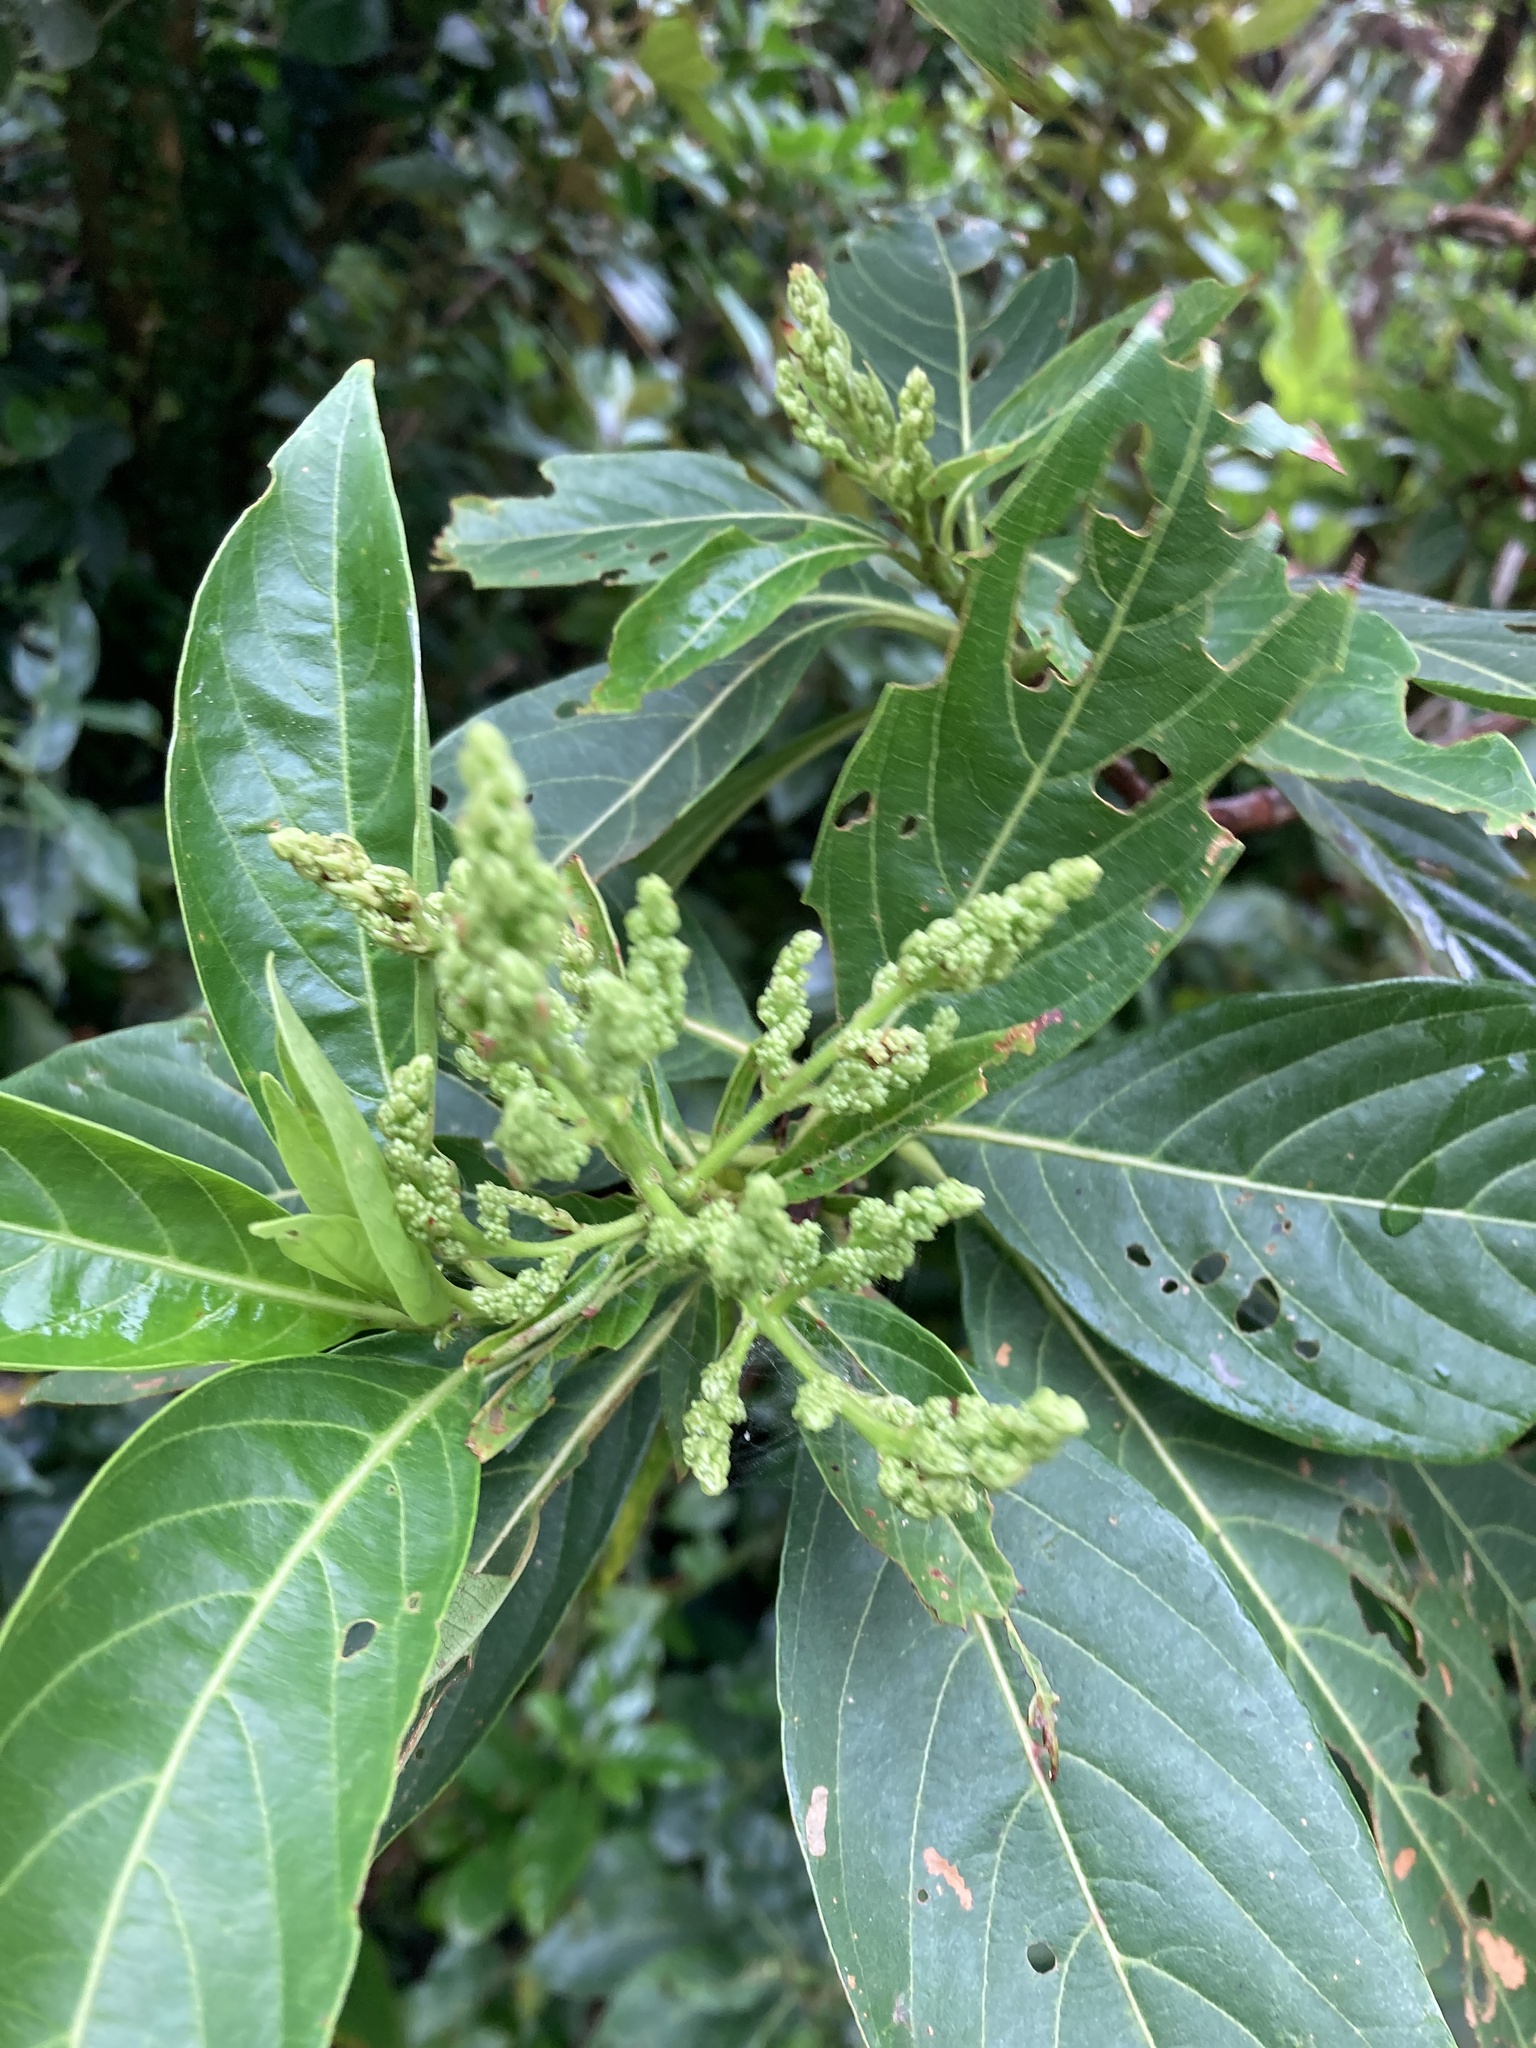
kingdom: Plantae
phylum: Tracheophyta
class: Magnoliopsida
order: Gentianales
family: Rubiaceae
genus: Wendlandia
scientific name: Wendlandia uvariifolia
